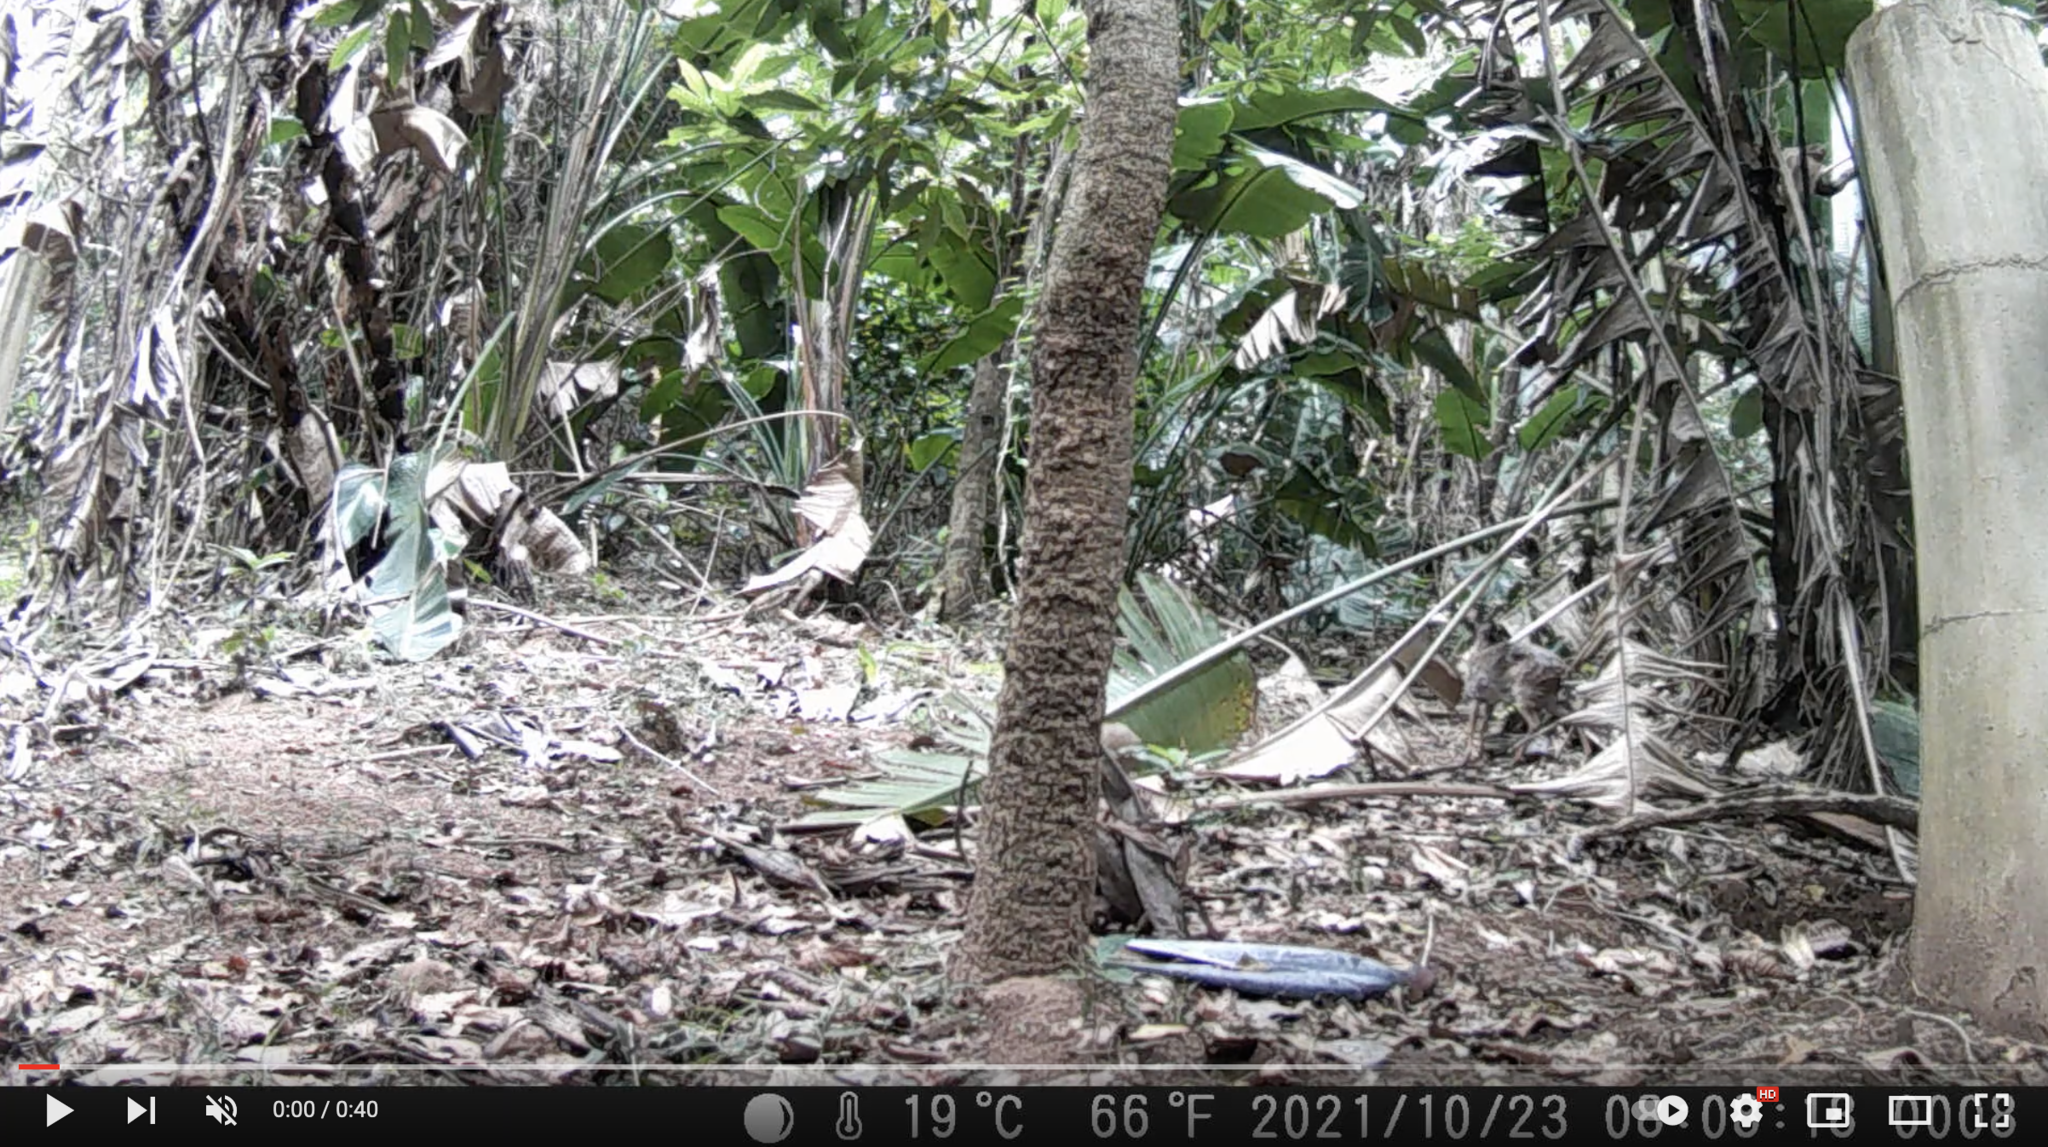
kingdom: Animalia
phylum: Chordata
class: Mammalia
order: Artiodactyla
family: Bovidae
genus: Philantomba
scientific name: Philantomba monticola
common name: Blue duiker
